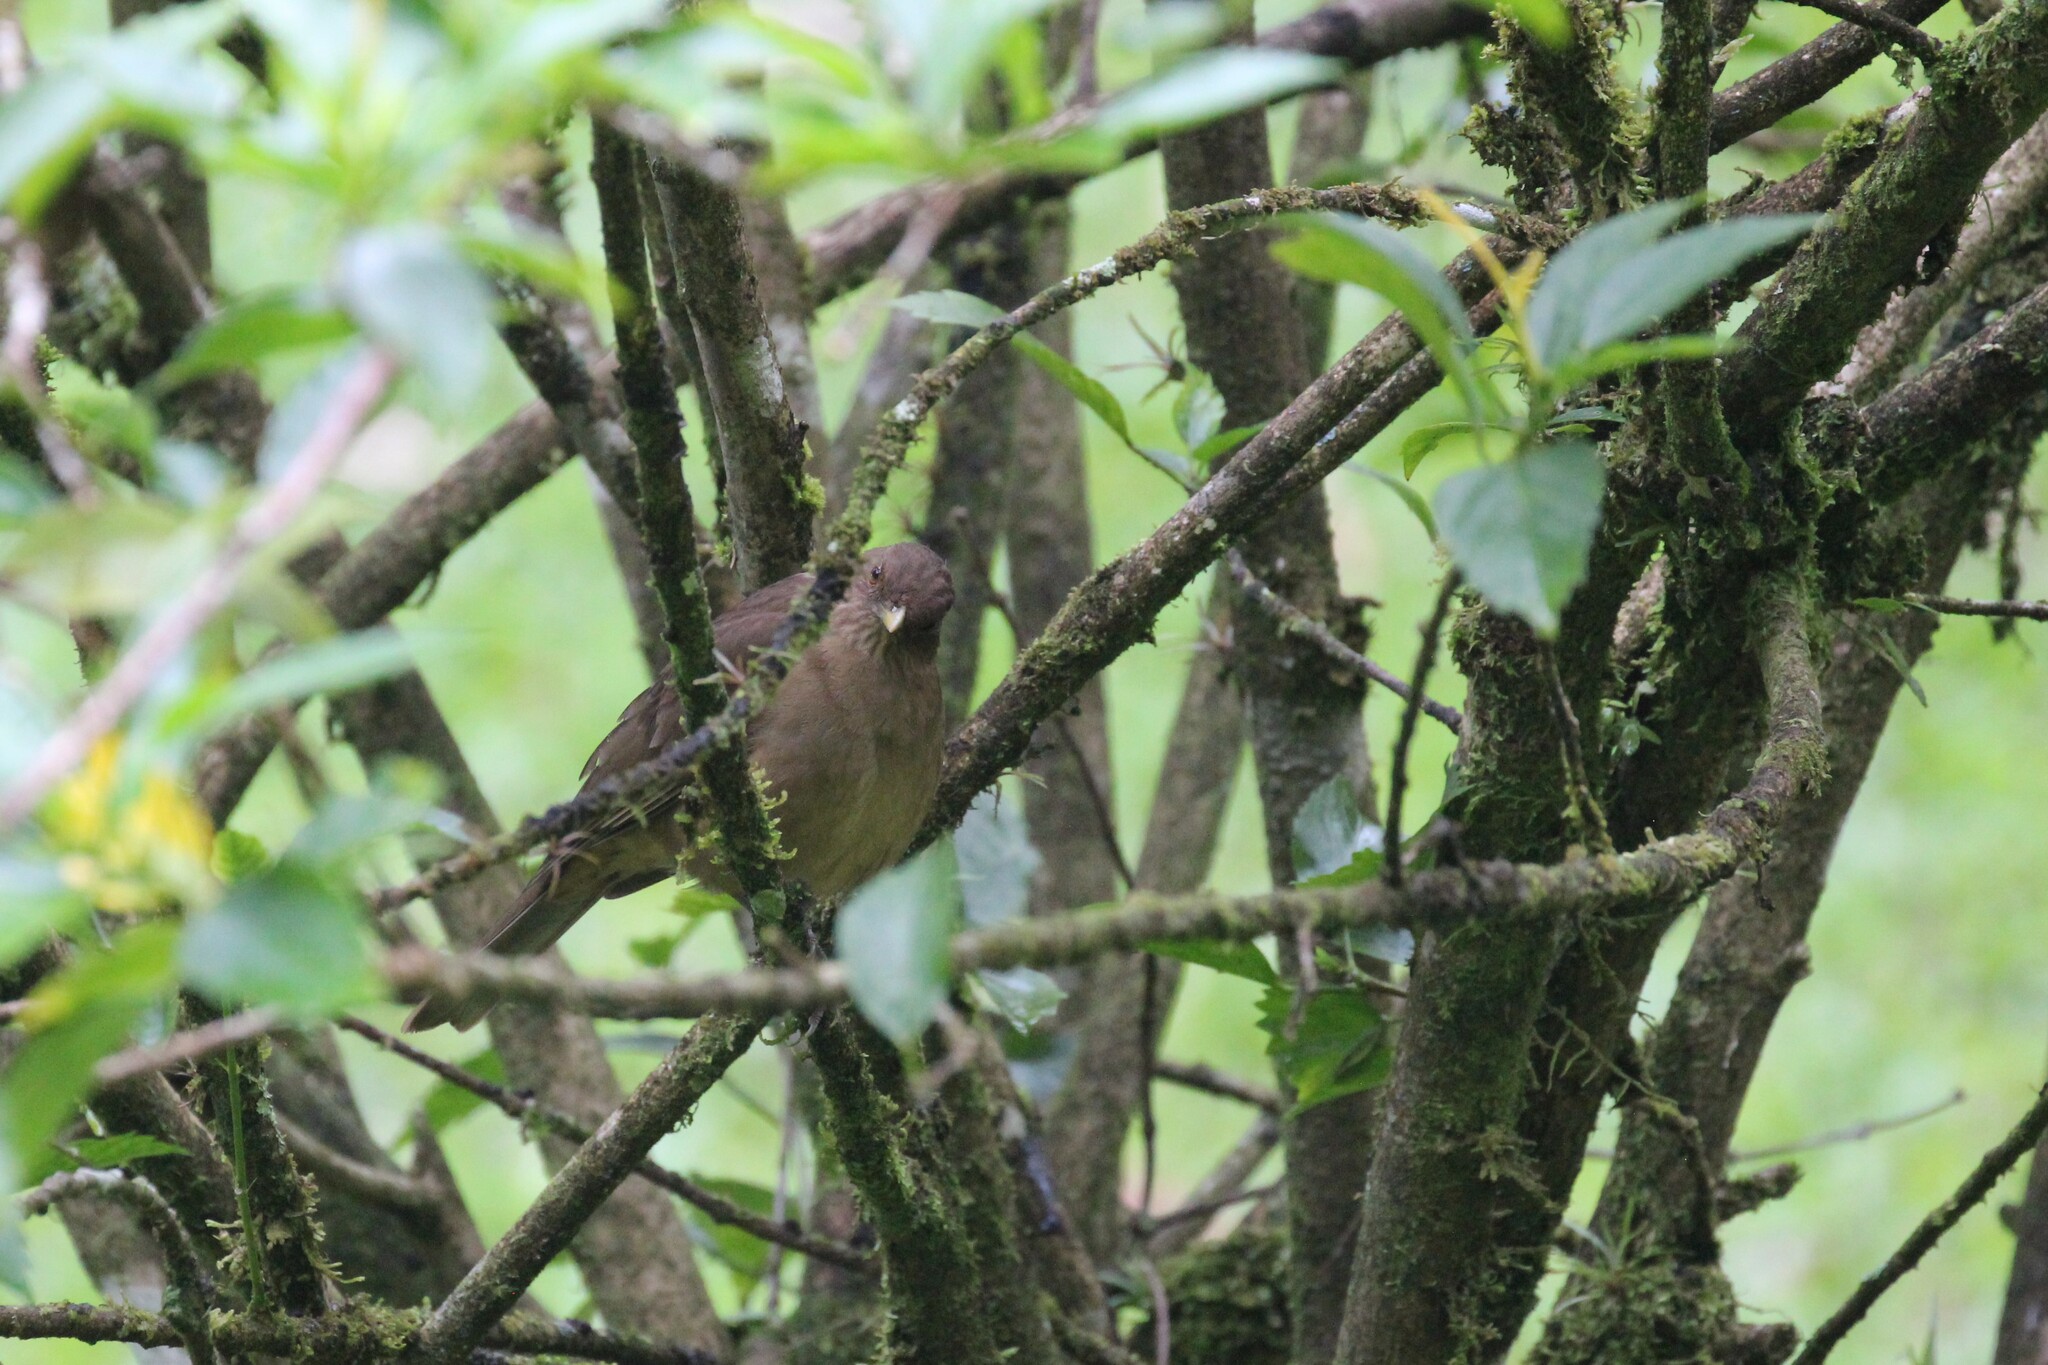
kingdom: Animalia
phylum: Chordata
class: Aves
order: Passeriformes
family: Turdidae
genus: Turdus
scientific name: Turdus grayi
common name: Clay-colored thrush
